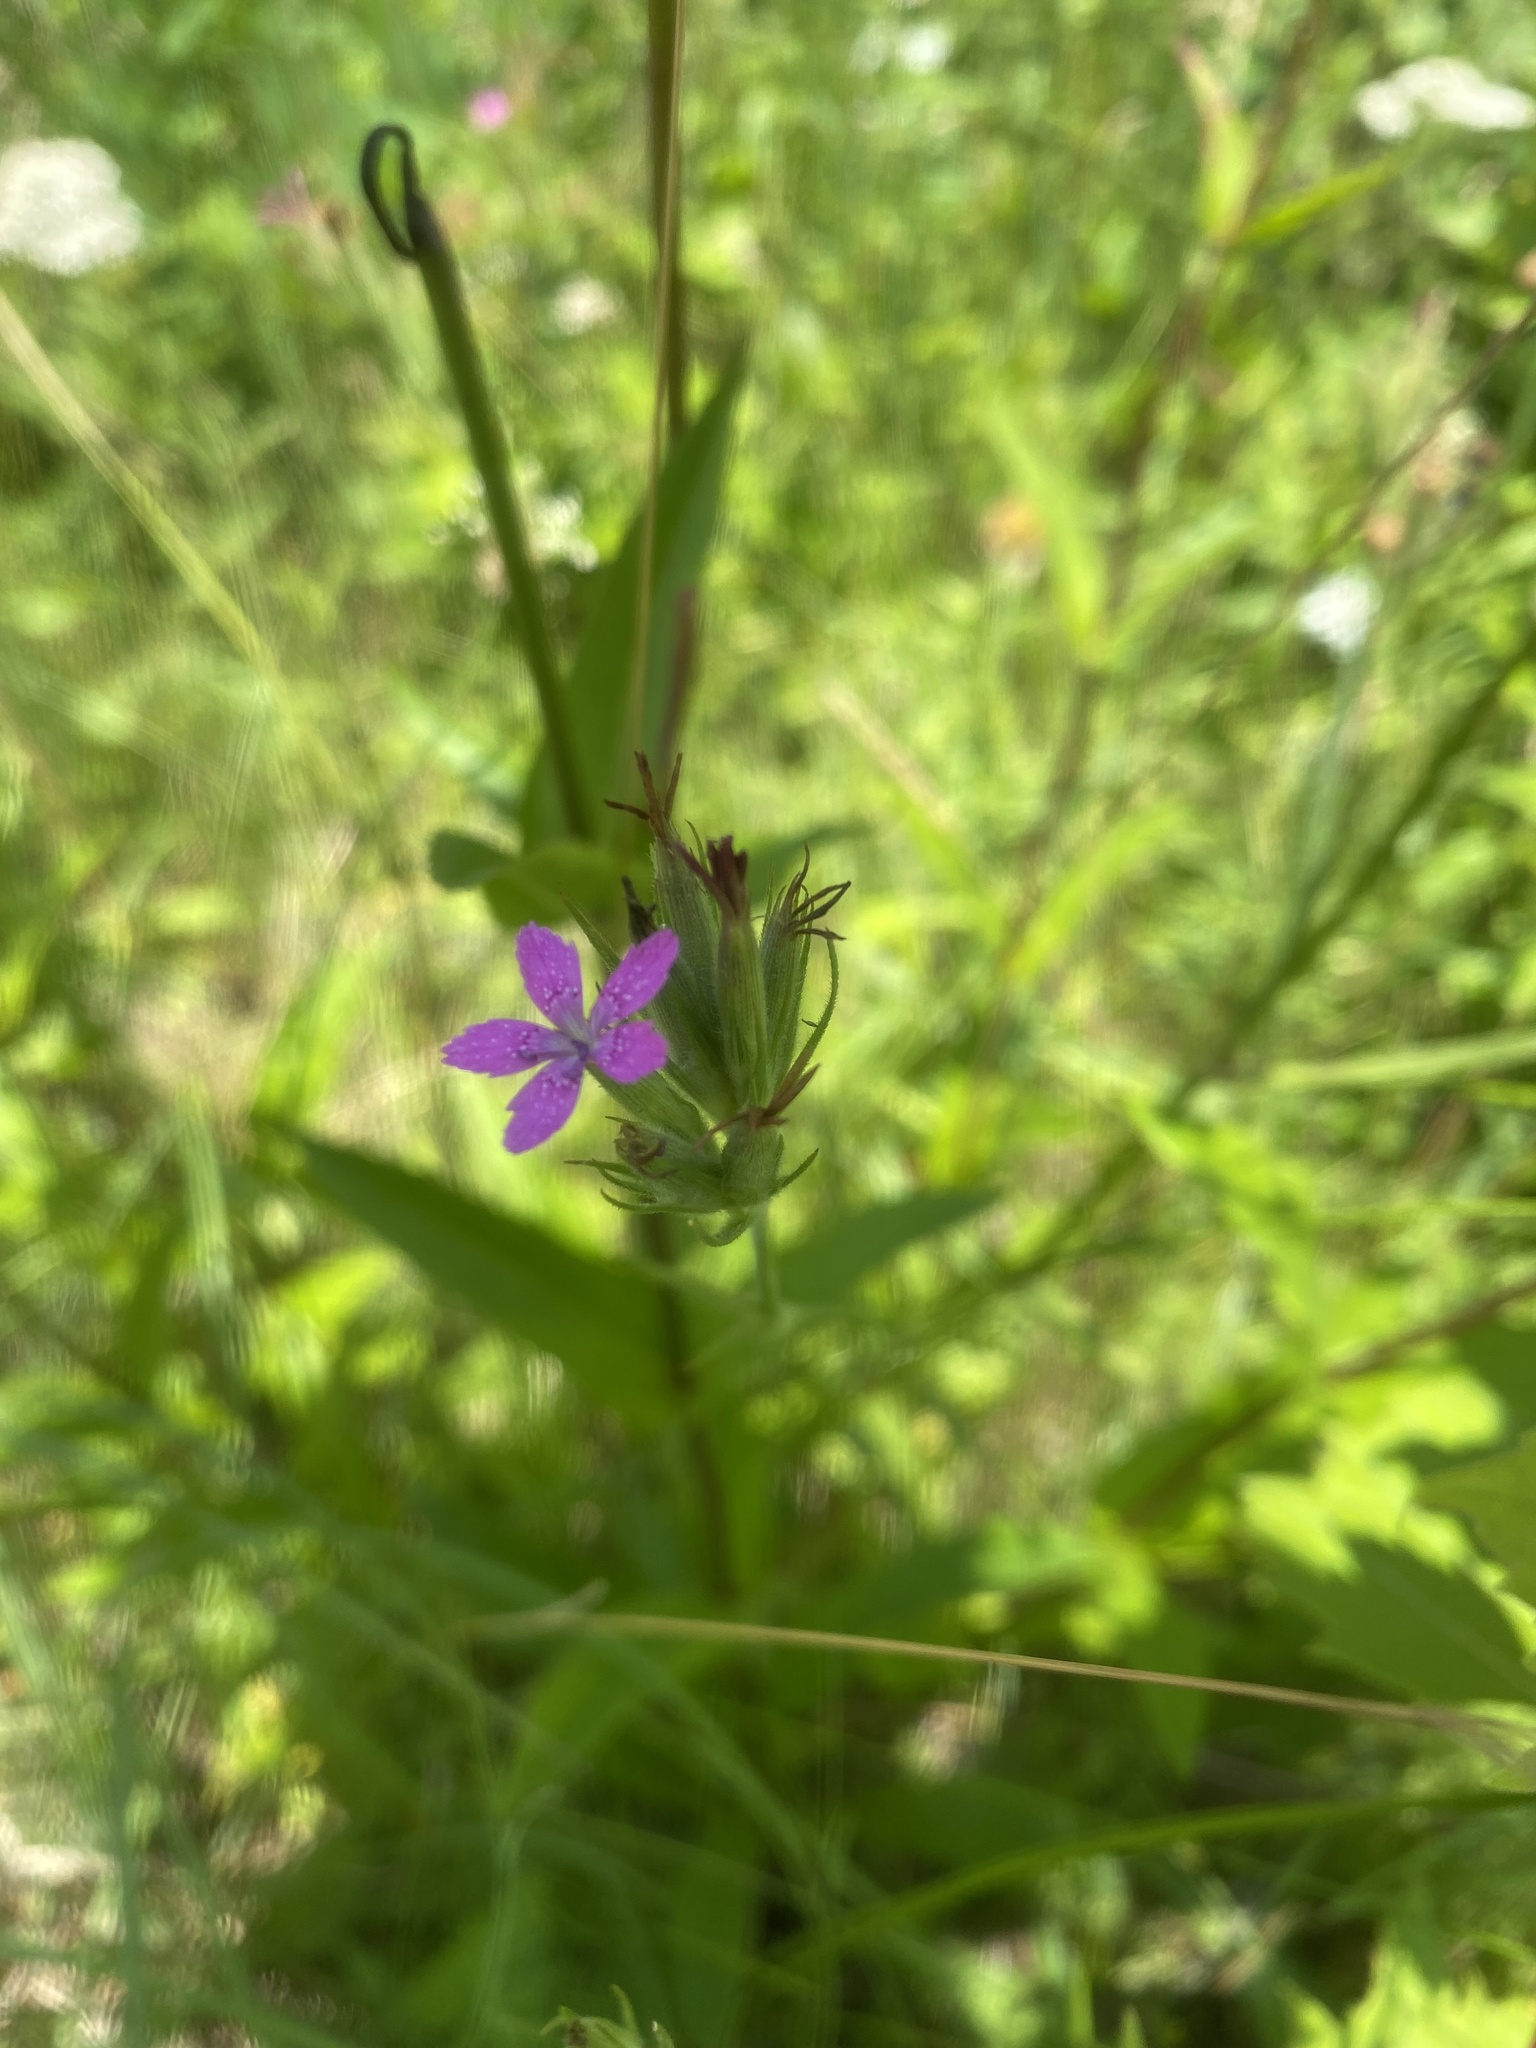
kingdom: Plantae
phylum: Tracheophyta
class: Magnoliopsida
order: Caryophyllales
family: Caryophyllaceae
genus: Dianthus
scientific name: Dianthus armeria
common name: Deptford pink
